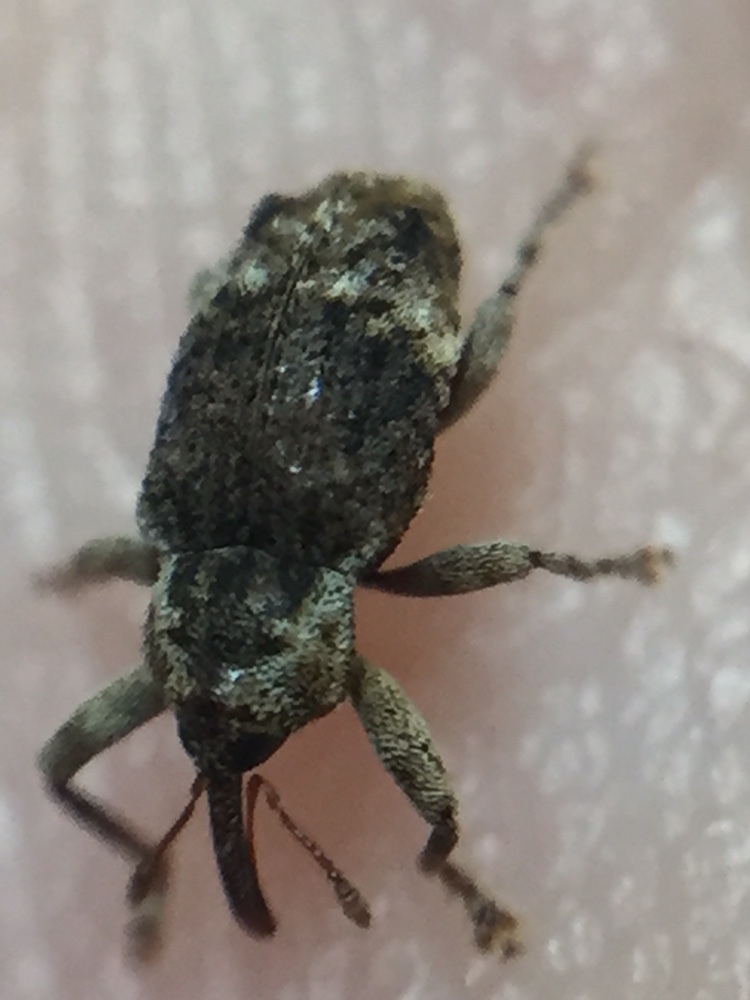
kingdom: Animalia
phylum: Arthropoda
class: Insecta
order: Coleoptera
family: Curculionidae
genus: Emplesis
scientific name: Emplesis bifoveata
